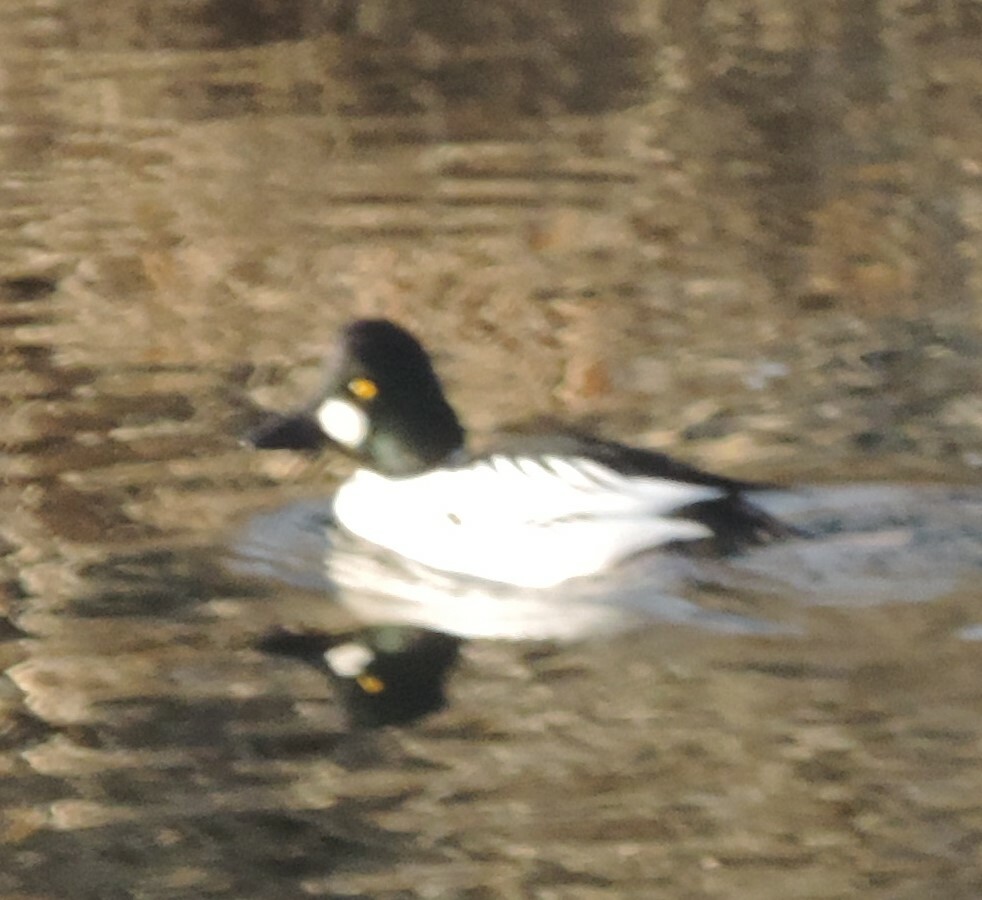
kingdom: Animalia
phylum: Chordata
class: Aves
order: Anseriformes
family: Anatidae
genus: Bucephala
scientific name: Bucephala clangula
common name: Common goldeneye
